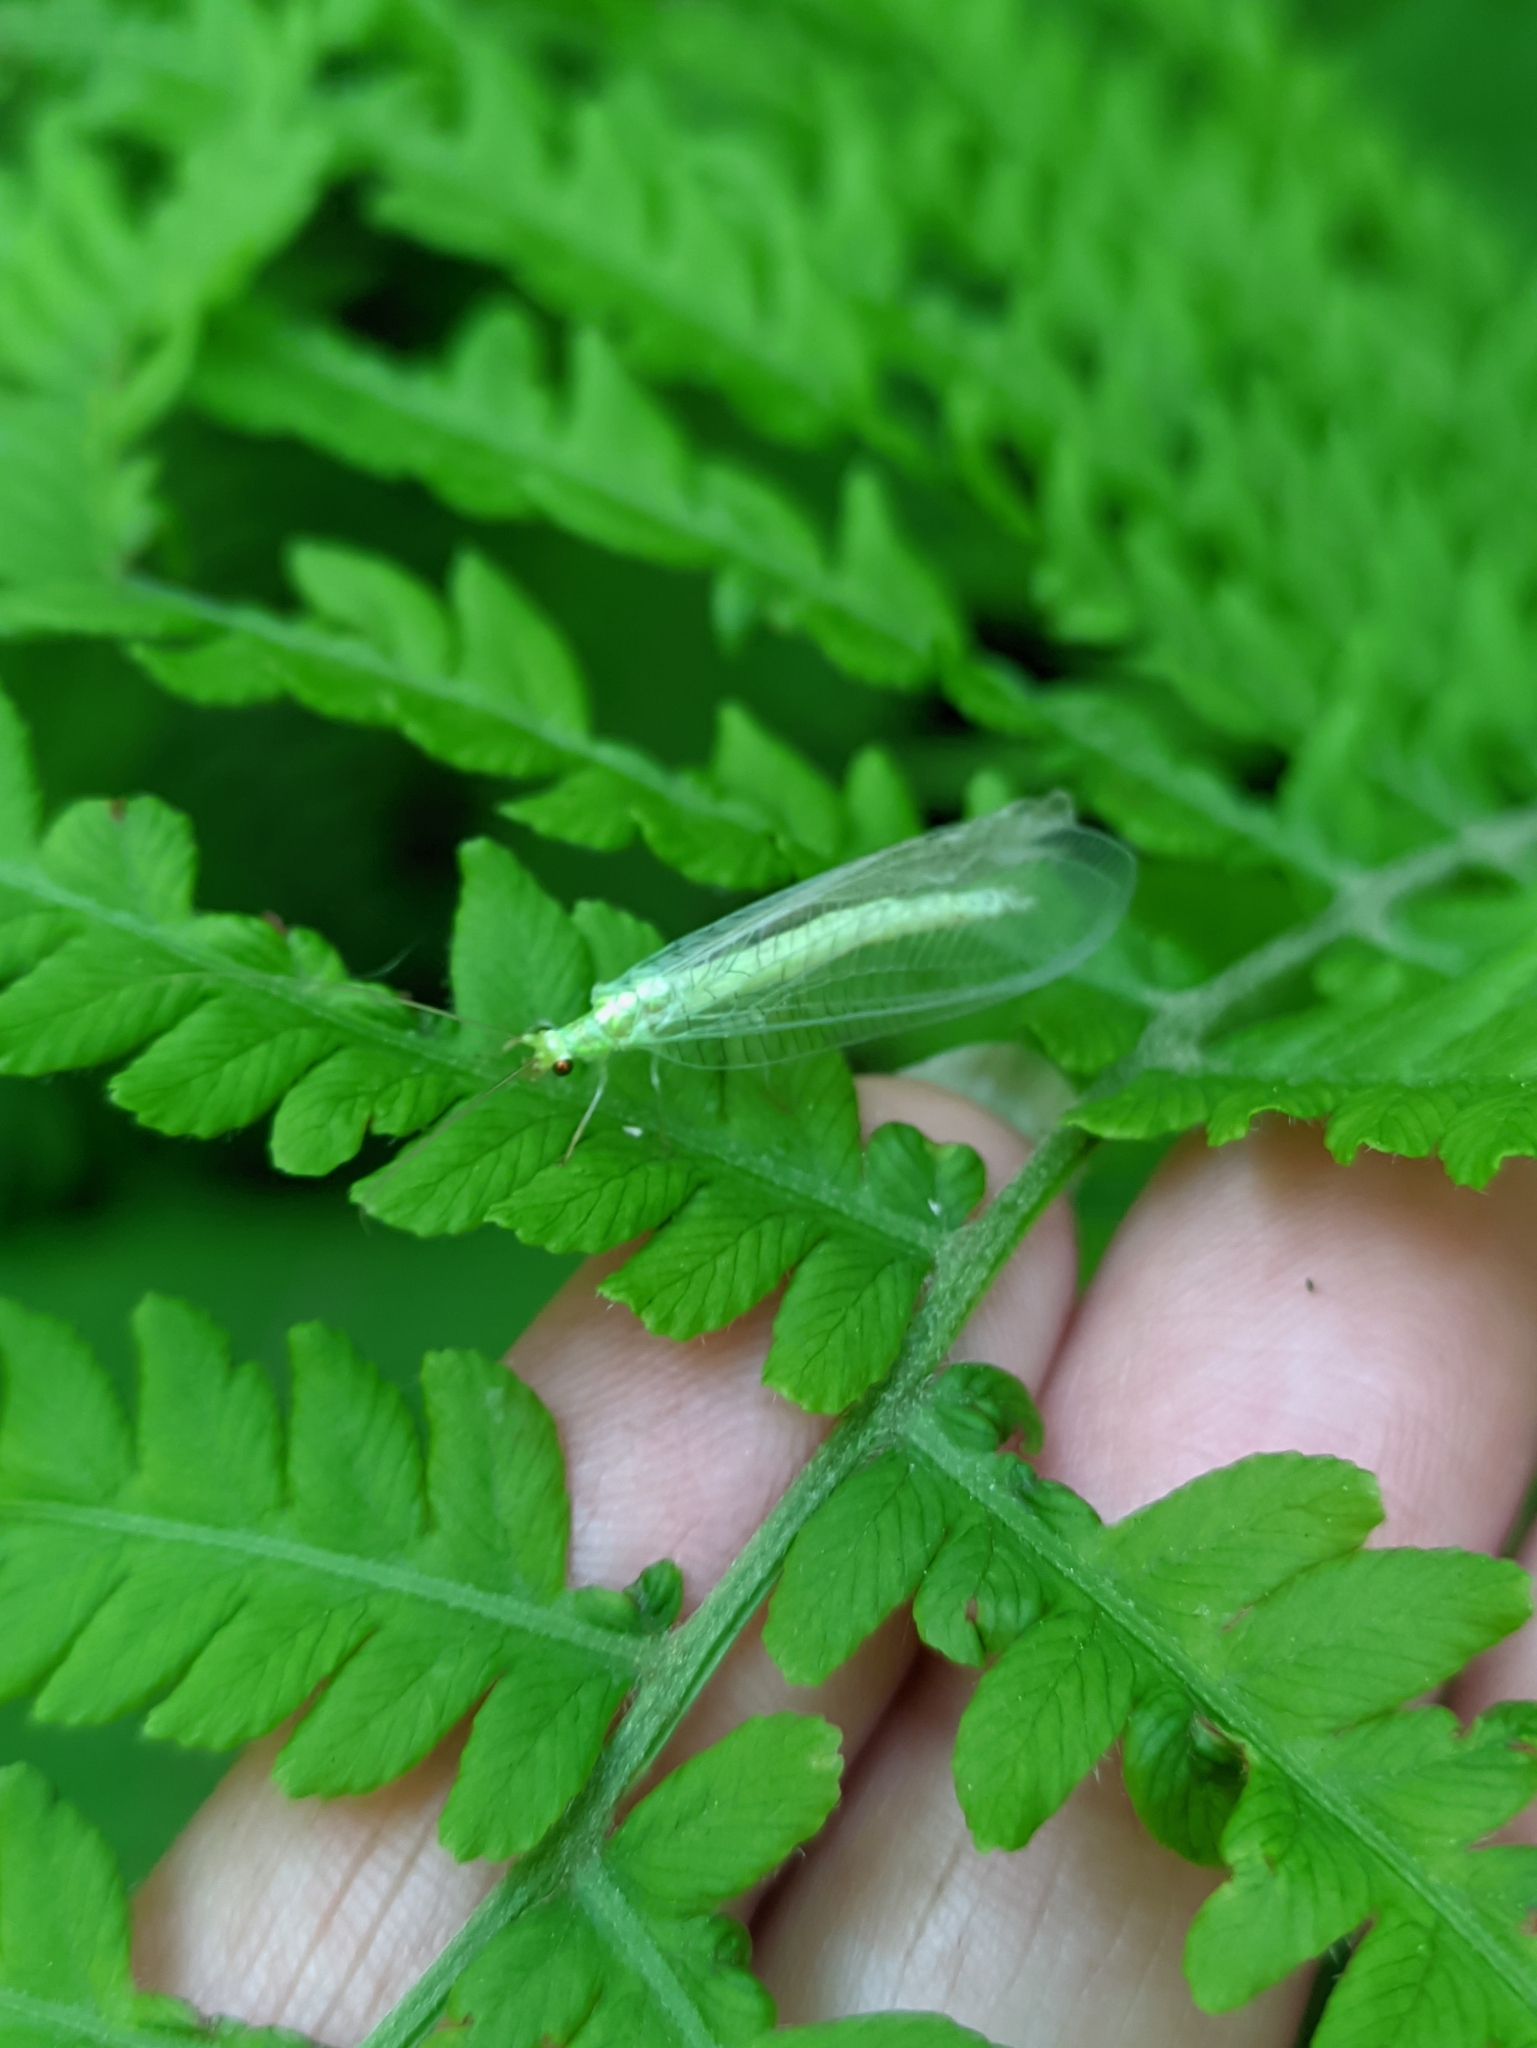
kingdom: Animalia
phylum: Arthropoda
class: Insecta
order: Neuroptera
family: Chrysopidae
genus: Nineta
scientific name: Nineta vittata
